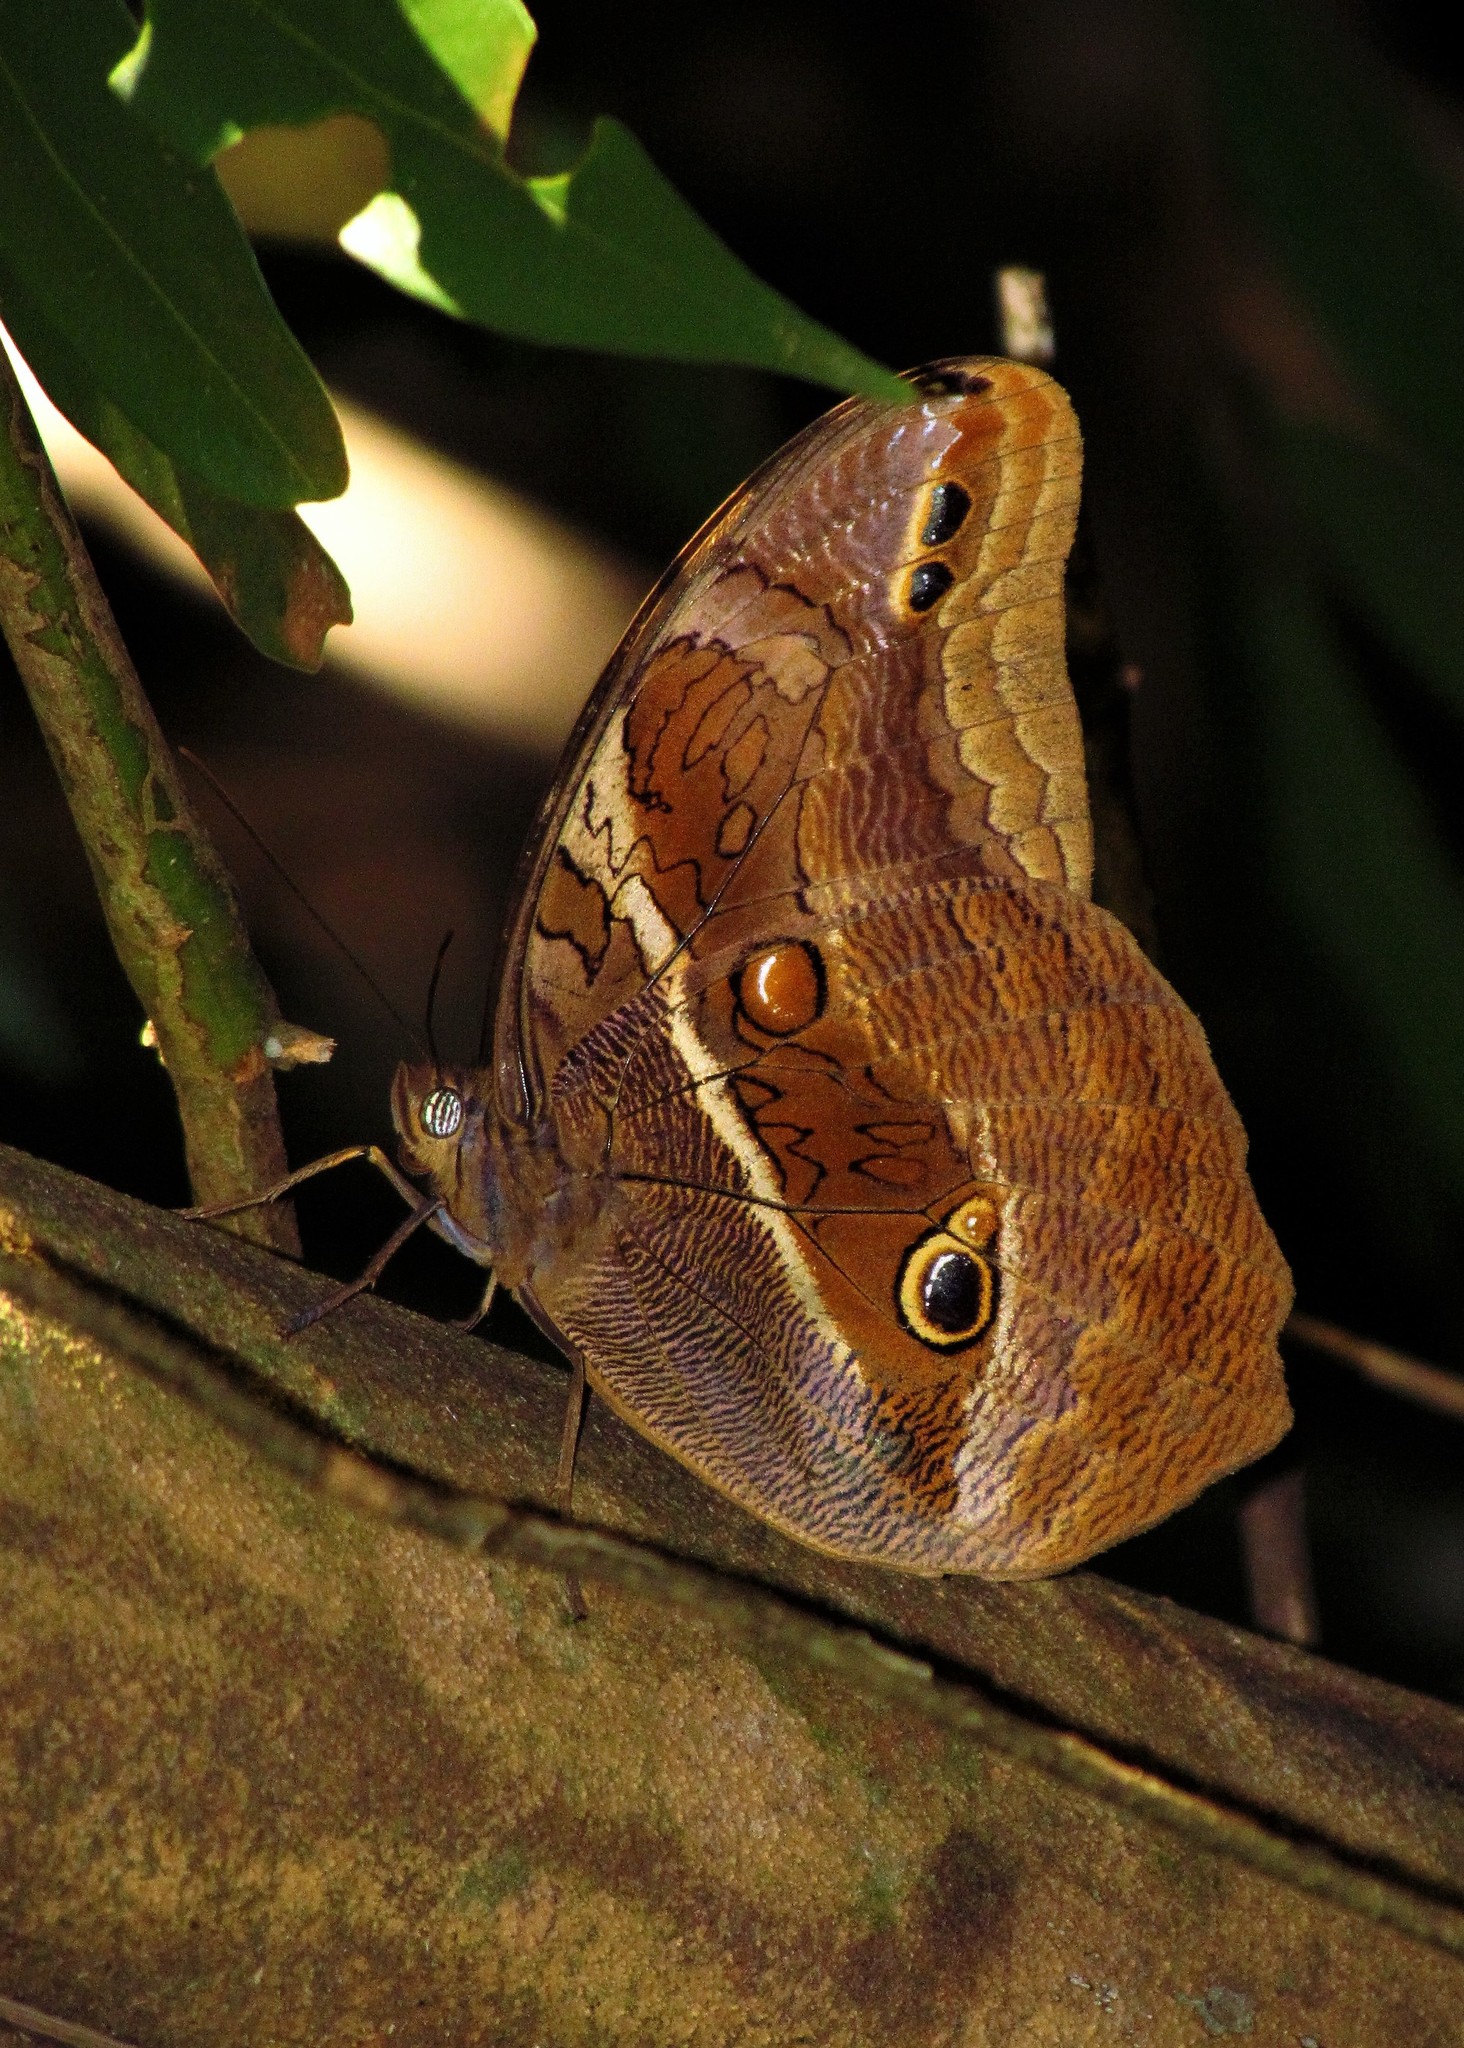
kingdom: Animalia
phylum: Arthropoda
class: Insecta
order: Lepidoptera
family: Nymphalidae
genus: Eryphanis
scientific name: Eryphanis reevesii
